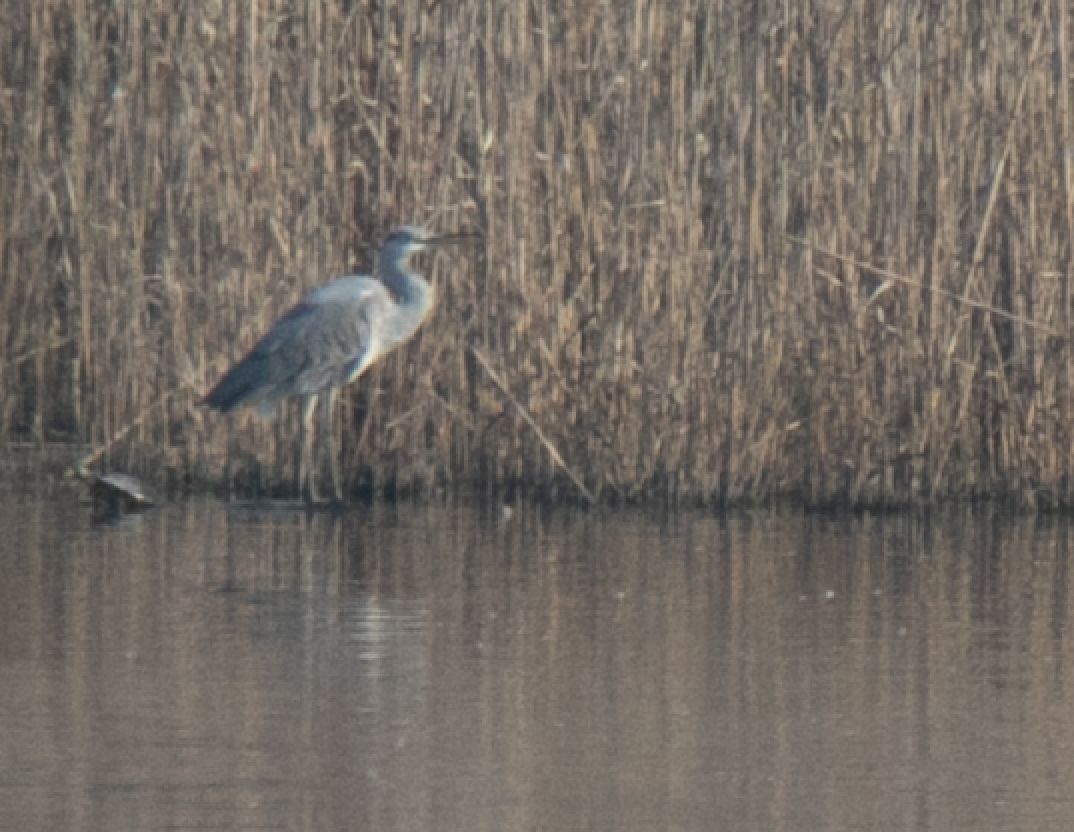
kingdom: Animalia
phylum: Chordata
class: Aves
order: Pelecaniformes
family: Ardeidae
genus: Ardea
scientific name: Ardea cinerea
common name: Grey heron
